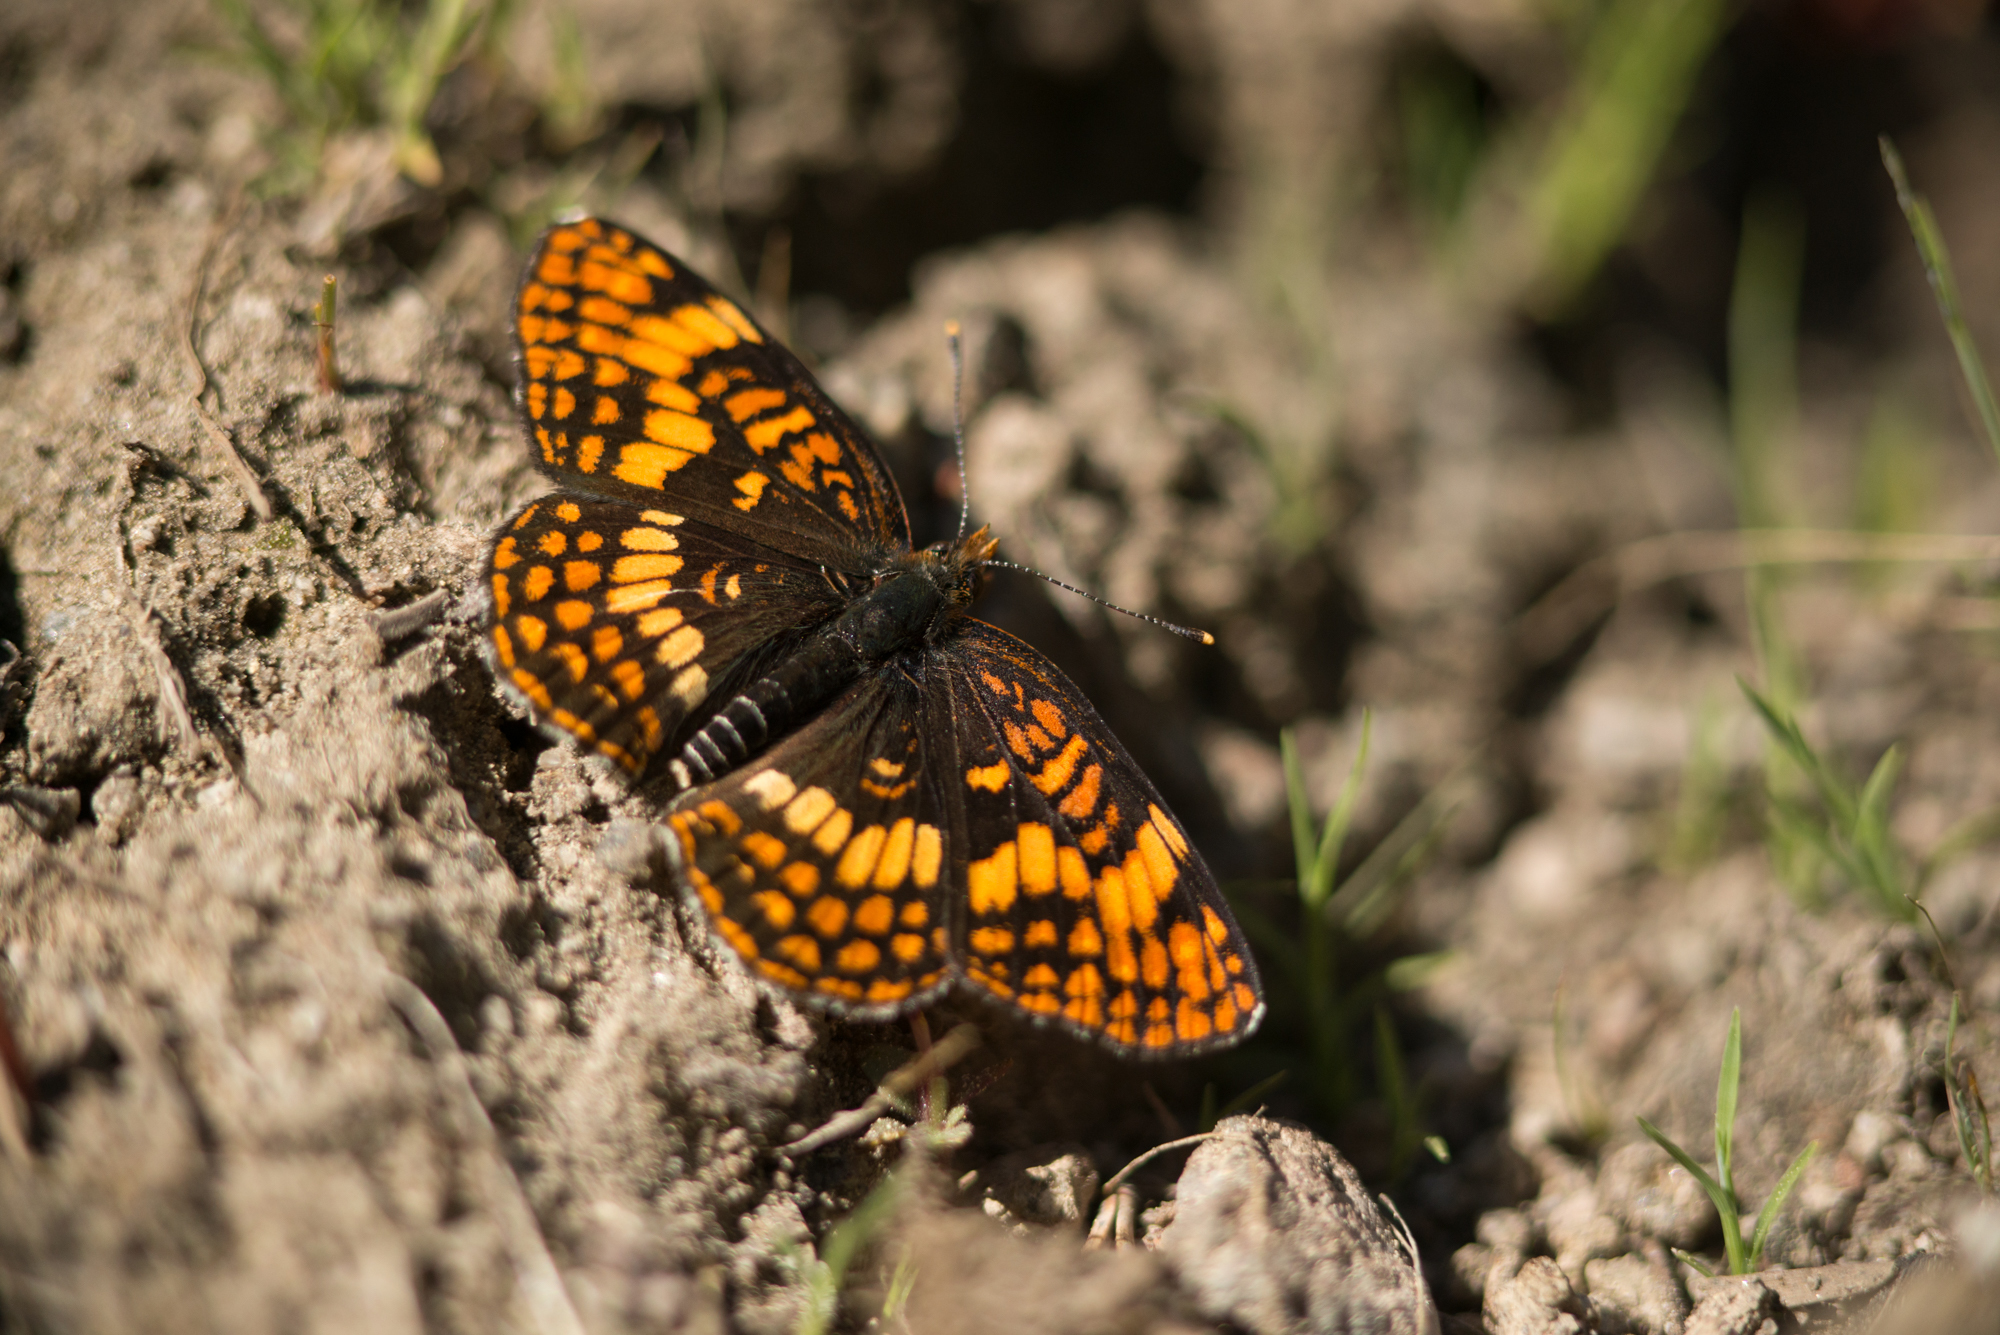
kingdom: Animalia
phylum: Arthropoda
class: Insecta
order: Lepidoptera
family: Nymphalidae
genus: Chlosyne
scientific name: Chlosyne hoffmanni
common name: Hoffmann's checkerspot
